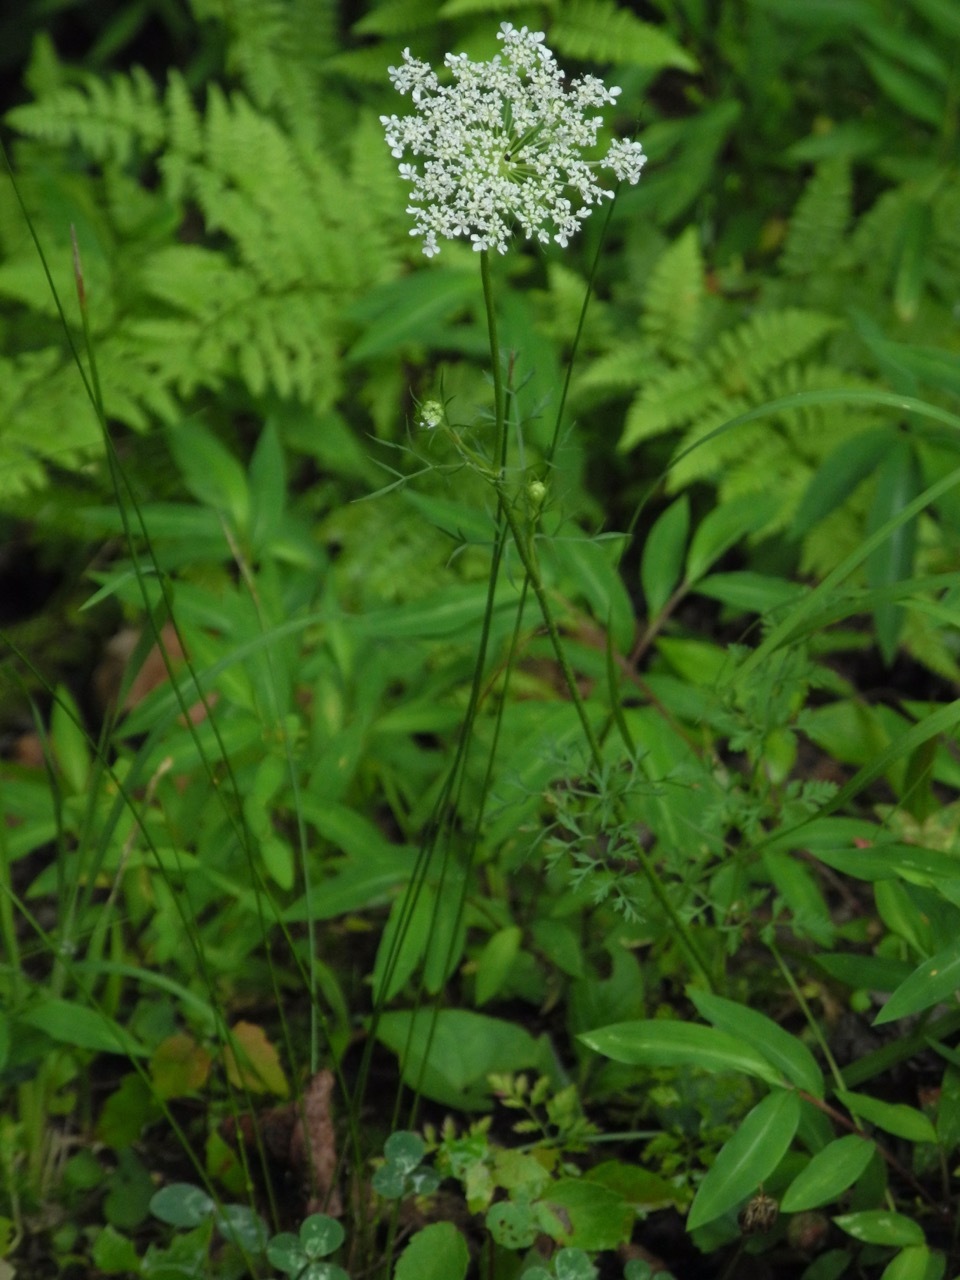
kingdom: Plantae
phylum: Tracheophyta
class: Magnoliopsida
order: Apiales
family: Apiaceae
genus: Daucus
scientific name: Daucus carota
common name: Wild carrot
